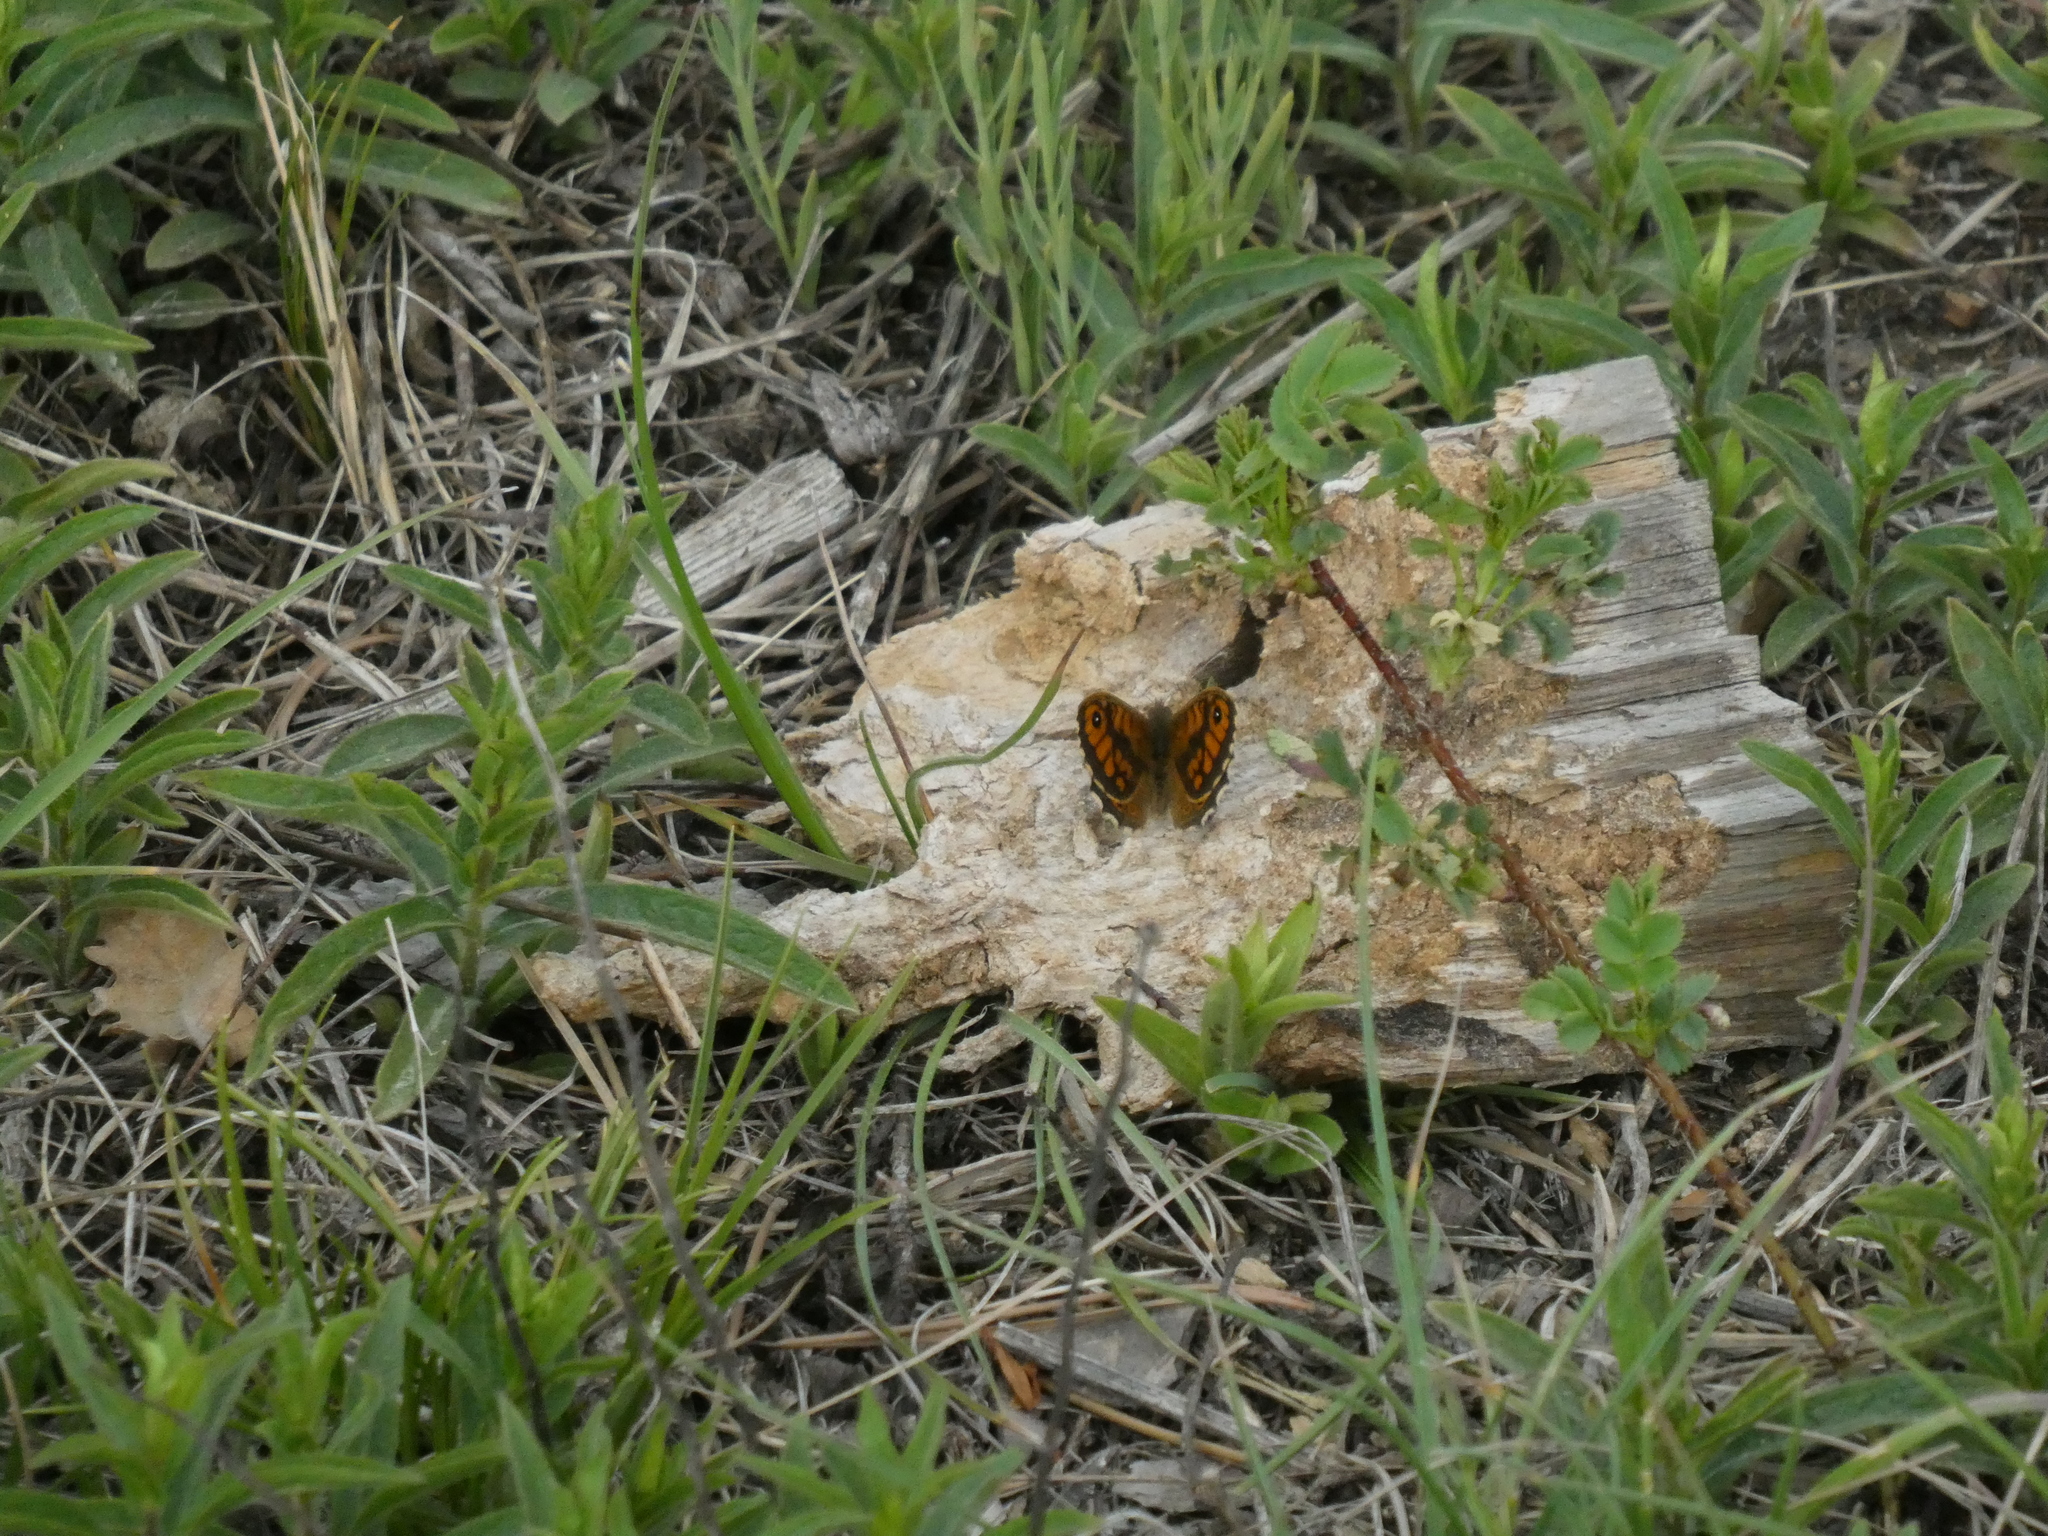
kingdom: Animalia
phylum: Arthropoda
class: Insecta
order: Lepidoptera
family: Nymphalidae
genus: Pararge
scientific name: Pararge Lasiommata megera
